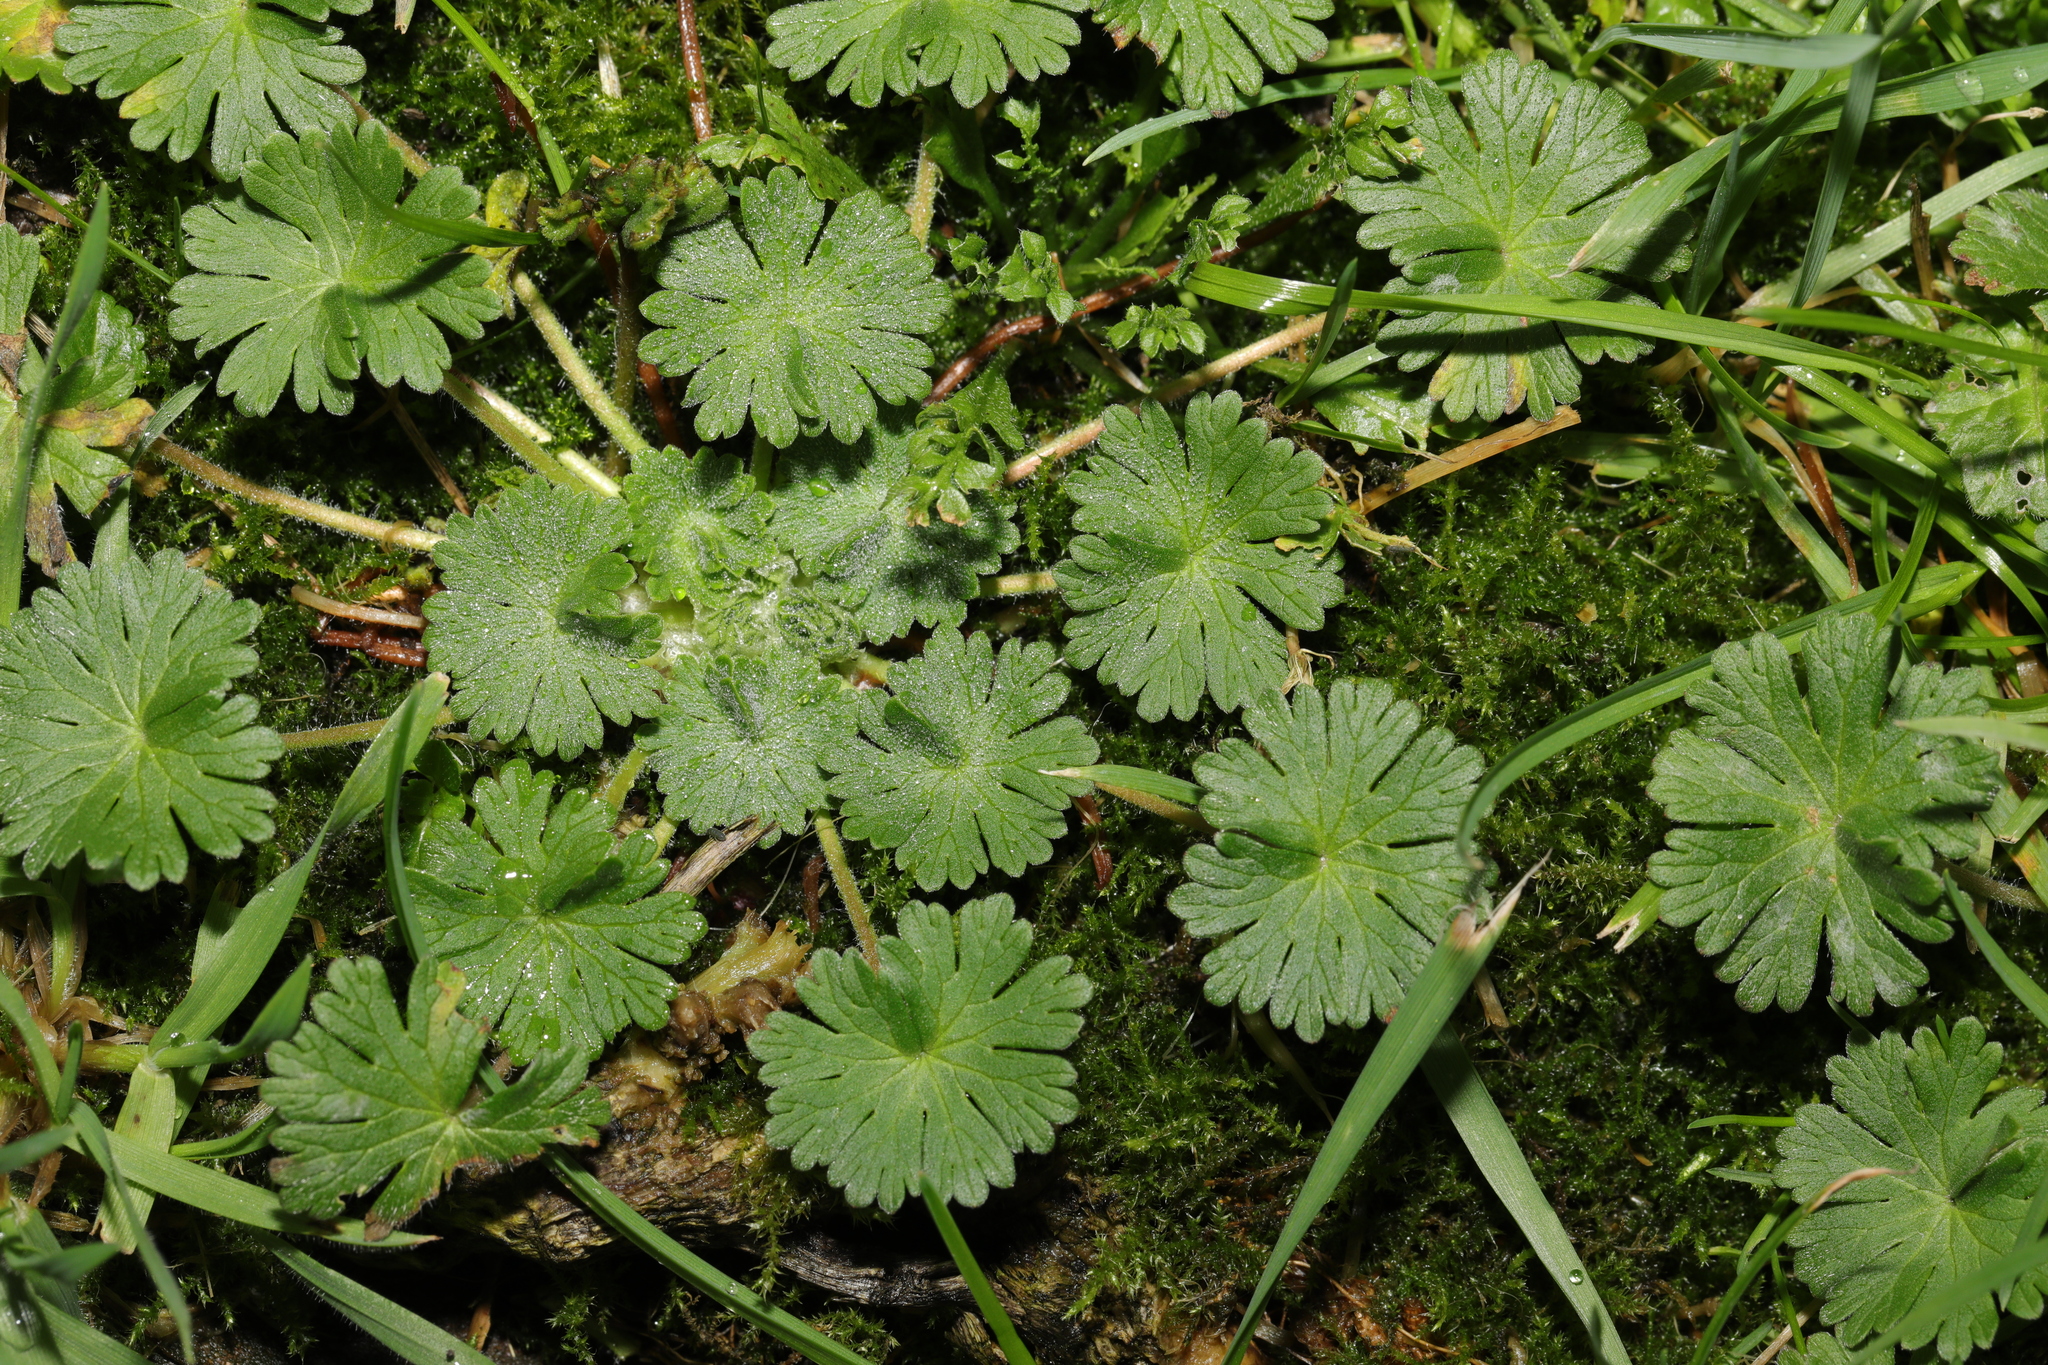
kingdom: Plantae
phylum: Tracheophyta
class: Magnoliopsida
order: Geraniales
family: Geraniaceae
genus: Geranium
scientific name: Geranium molle
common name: Dove's-foot crane's-bill
